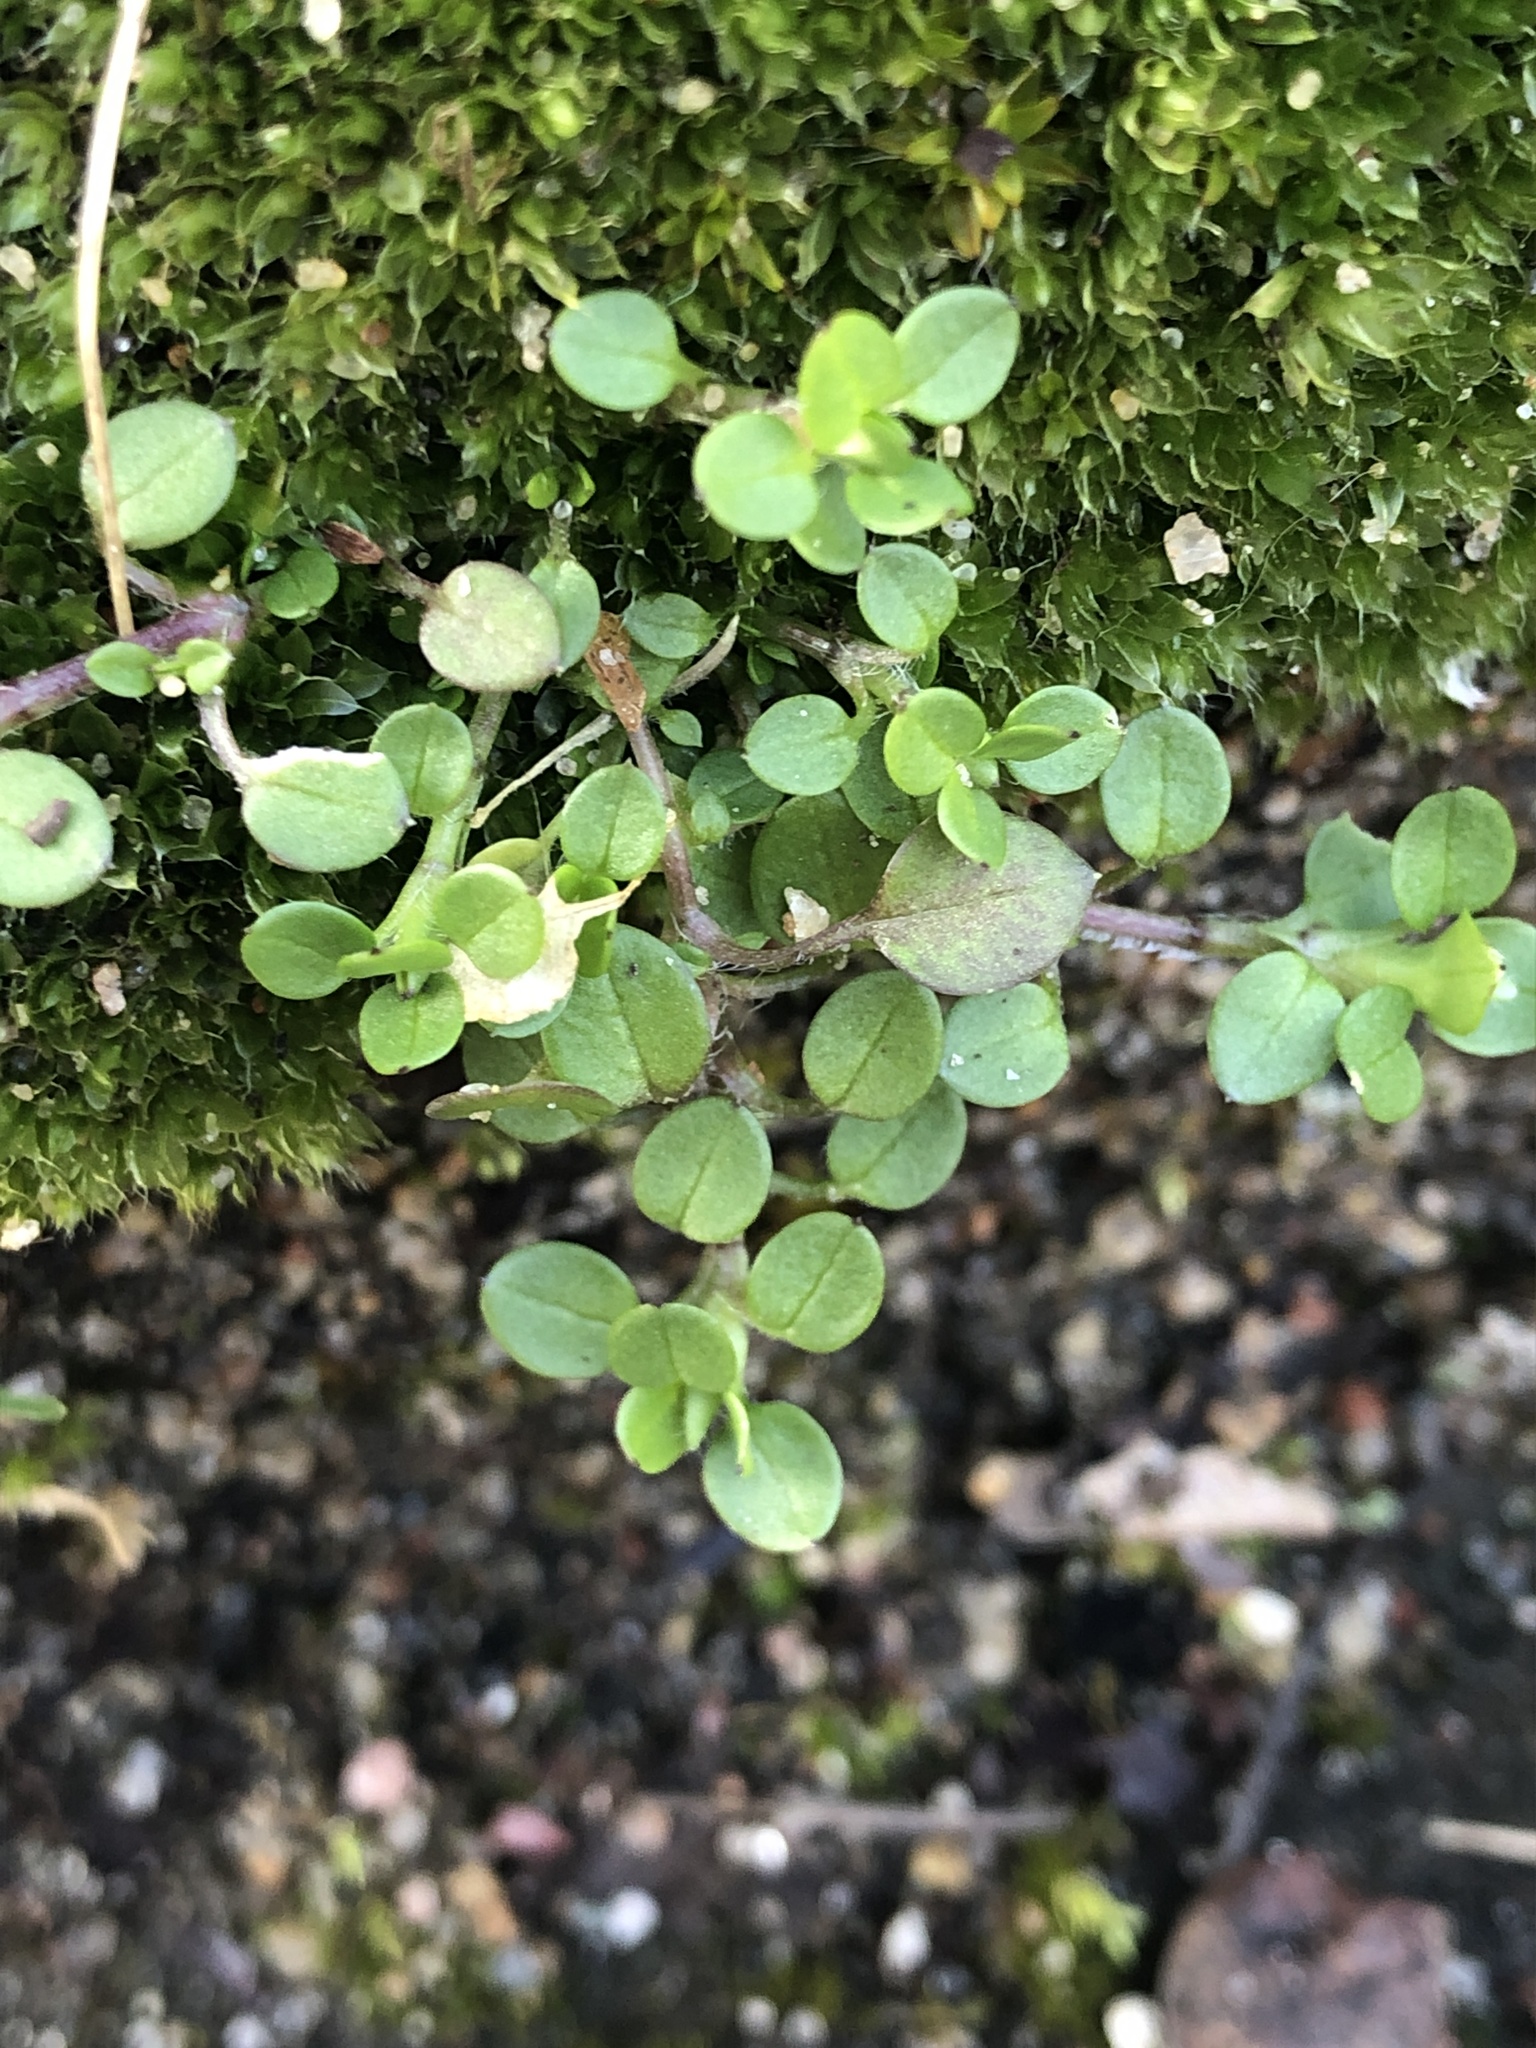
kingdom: Plantae
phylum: Tracheophyta
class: Magnoliopsida
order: Caryophyllales
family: Caryophyllaceae
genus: Stellaria
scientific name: Stellaria media
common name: Common chickweed
